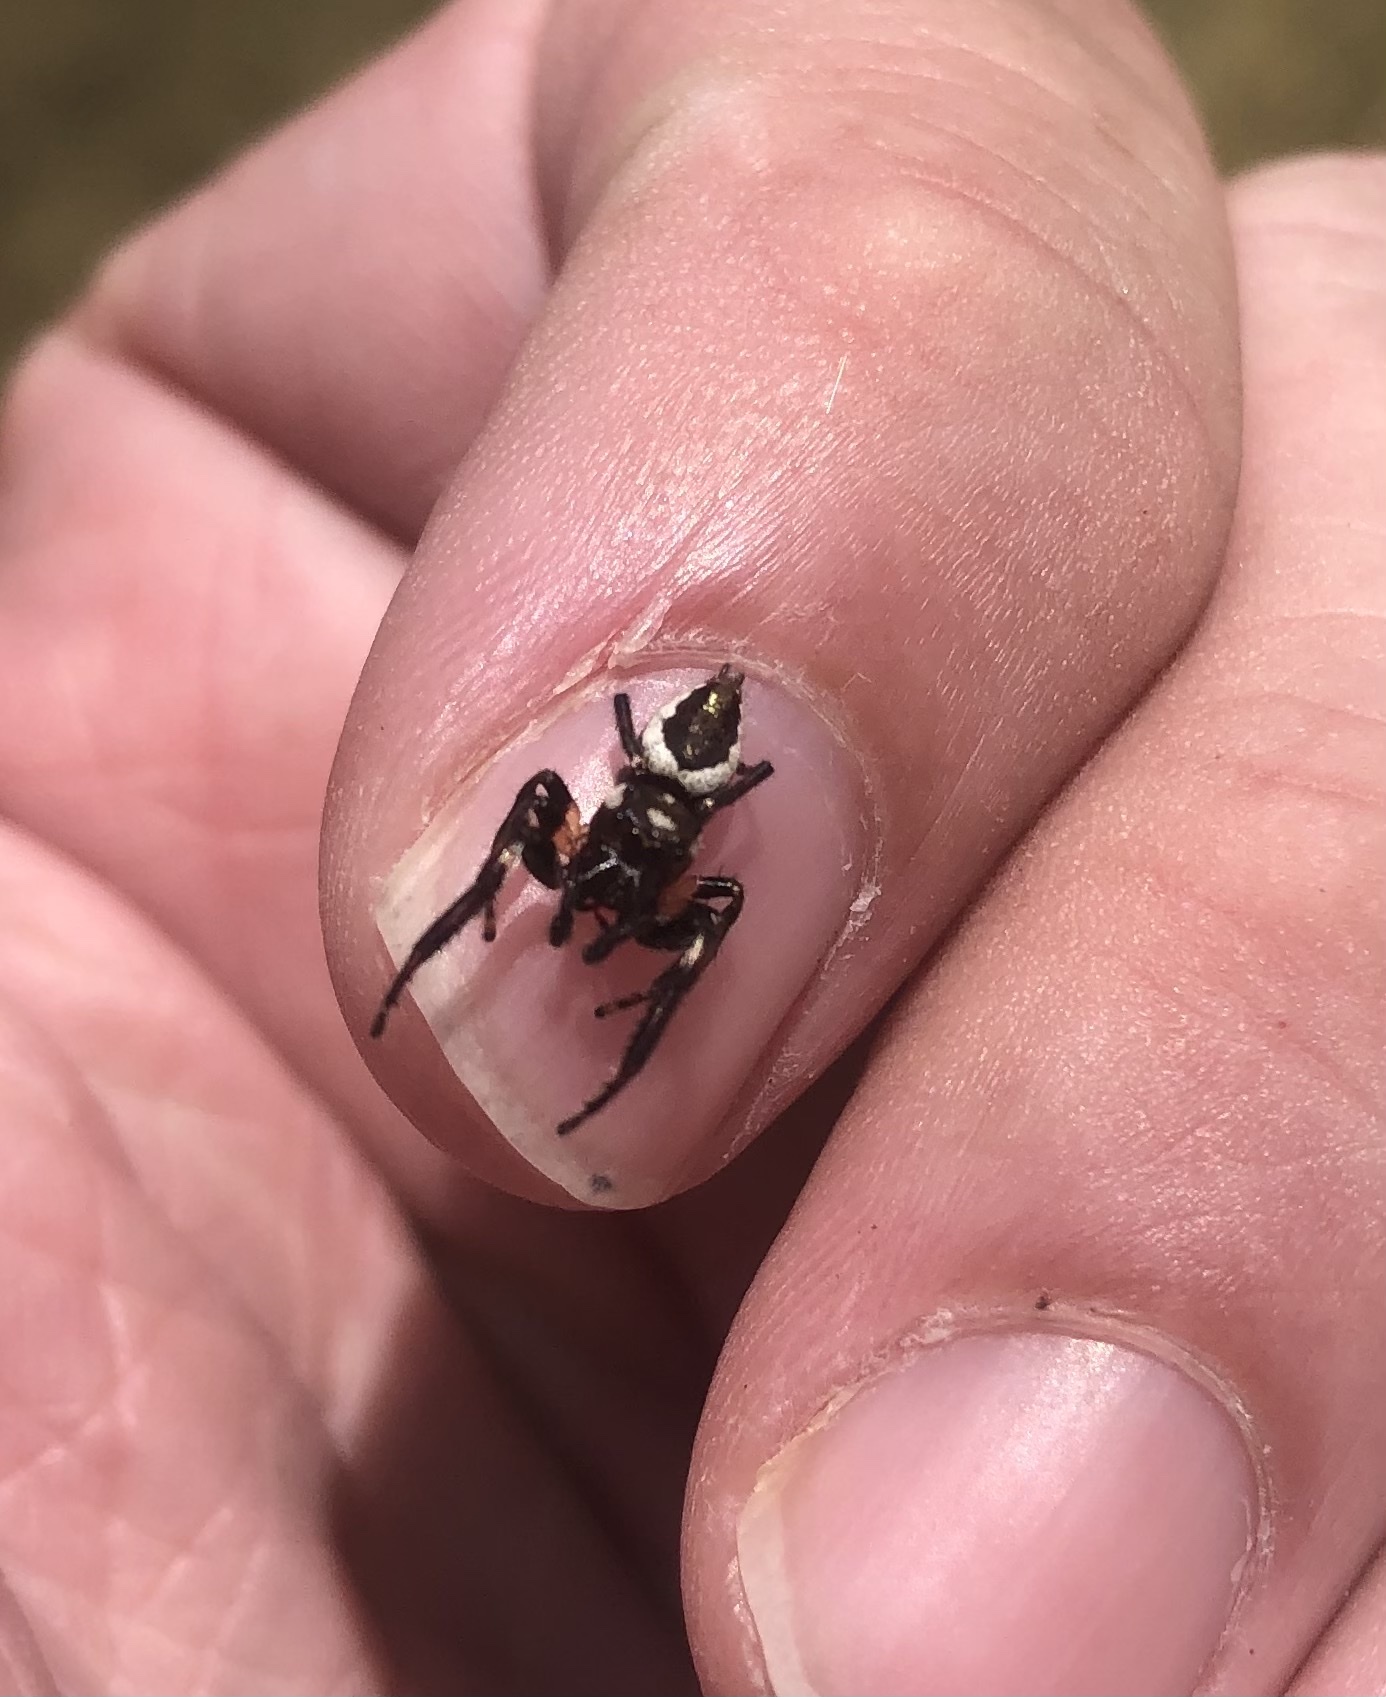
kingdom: Animalia
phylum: Arthropoda
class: Arachnida
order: Araneae
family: Salticidae
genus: Eris
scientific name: Eris militaris
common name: Bronze jumper
